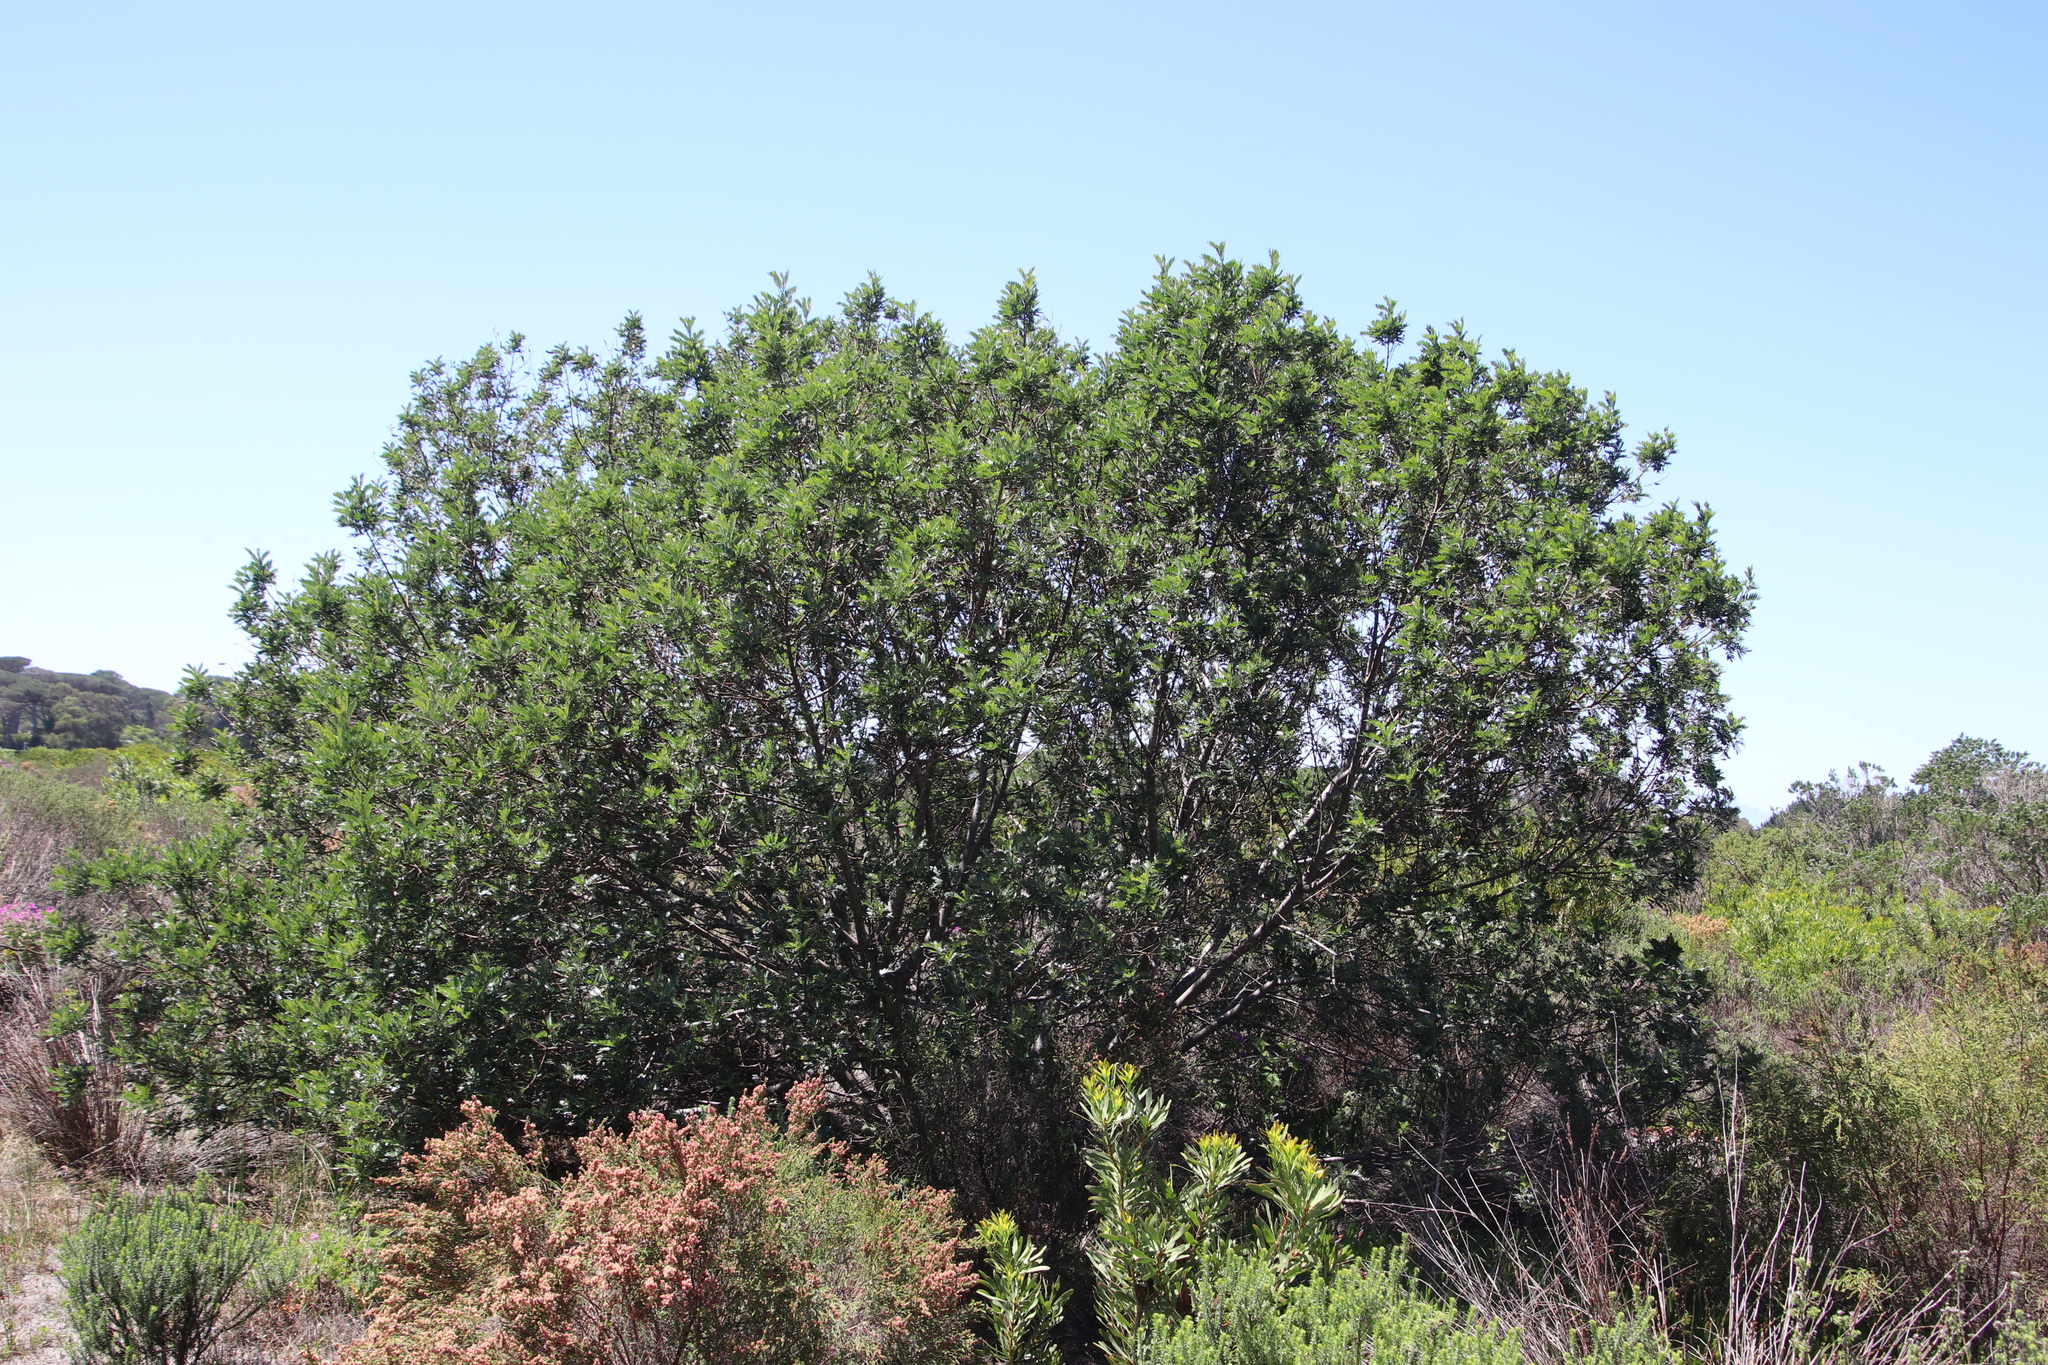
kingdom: Plantae
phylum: Tracheophyta
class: Magnoliopsida
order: Fabales
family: Fabaceae
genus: Virgilia
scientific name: Virgilia oroboides
